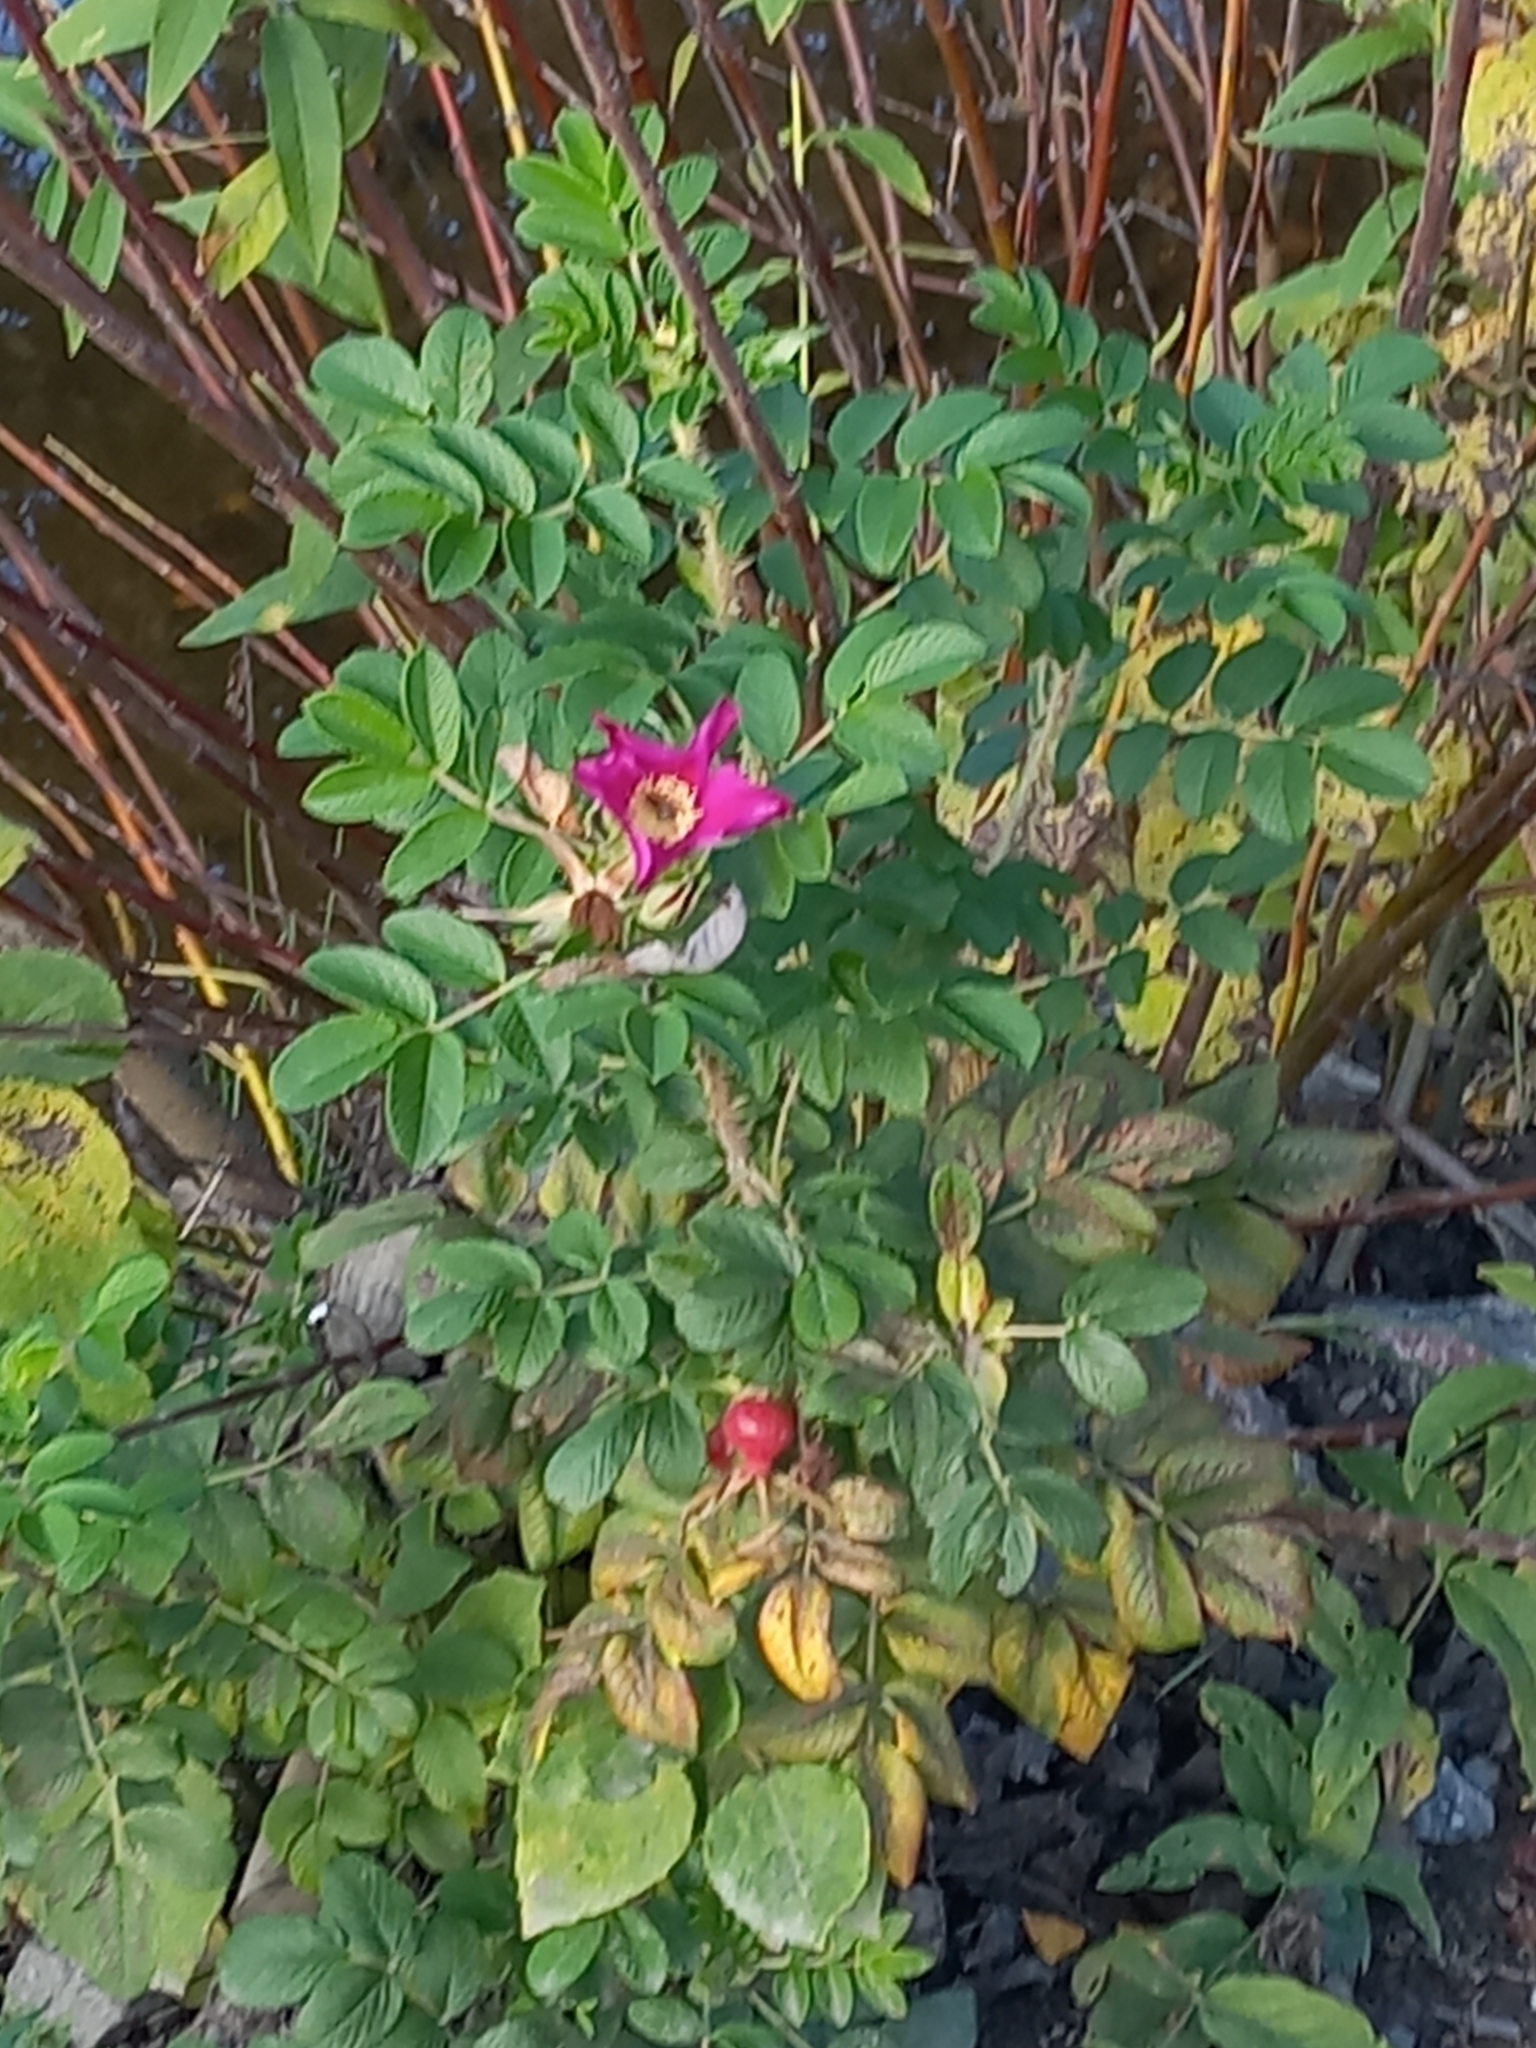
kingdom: Plantae
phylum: Tracheophyta
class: Magnoliopsida
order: Rosales
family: Rosaceae
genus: Rosa
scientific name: Rosa rugosa
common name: Japanese rose
